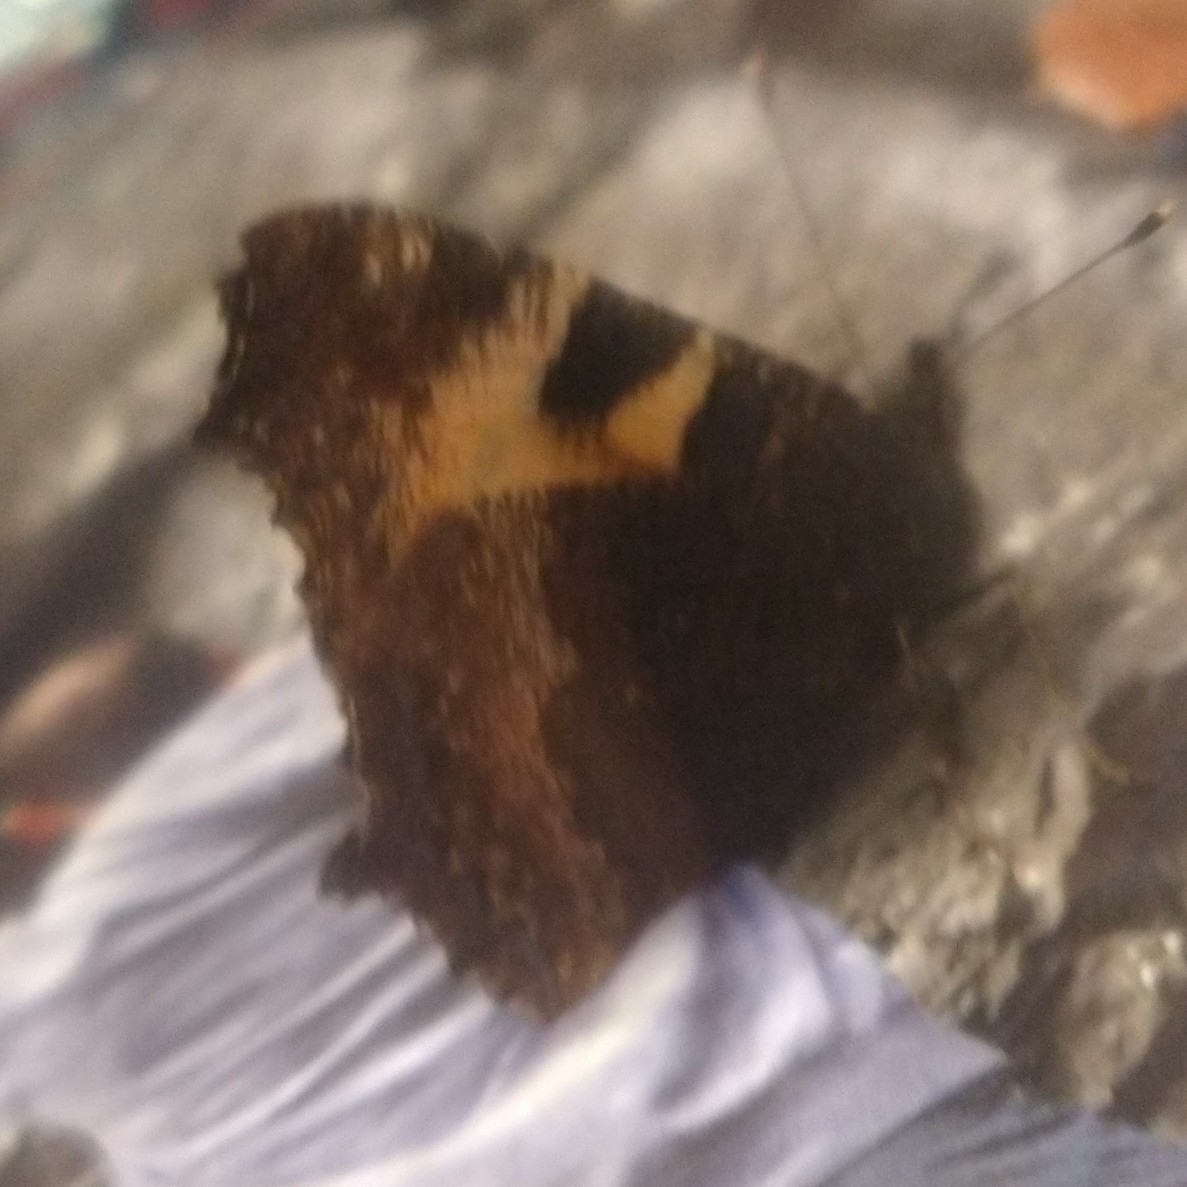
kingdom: Animalia
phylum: Arthropoda
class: Insecta
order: Lepidoptera
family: Nymphalidae
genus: Aglais
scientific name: Aglais urticae
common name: Small tortoiseshell
